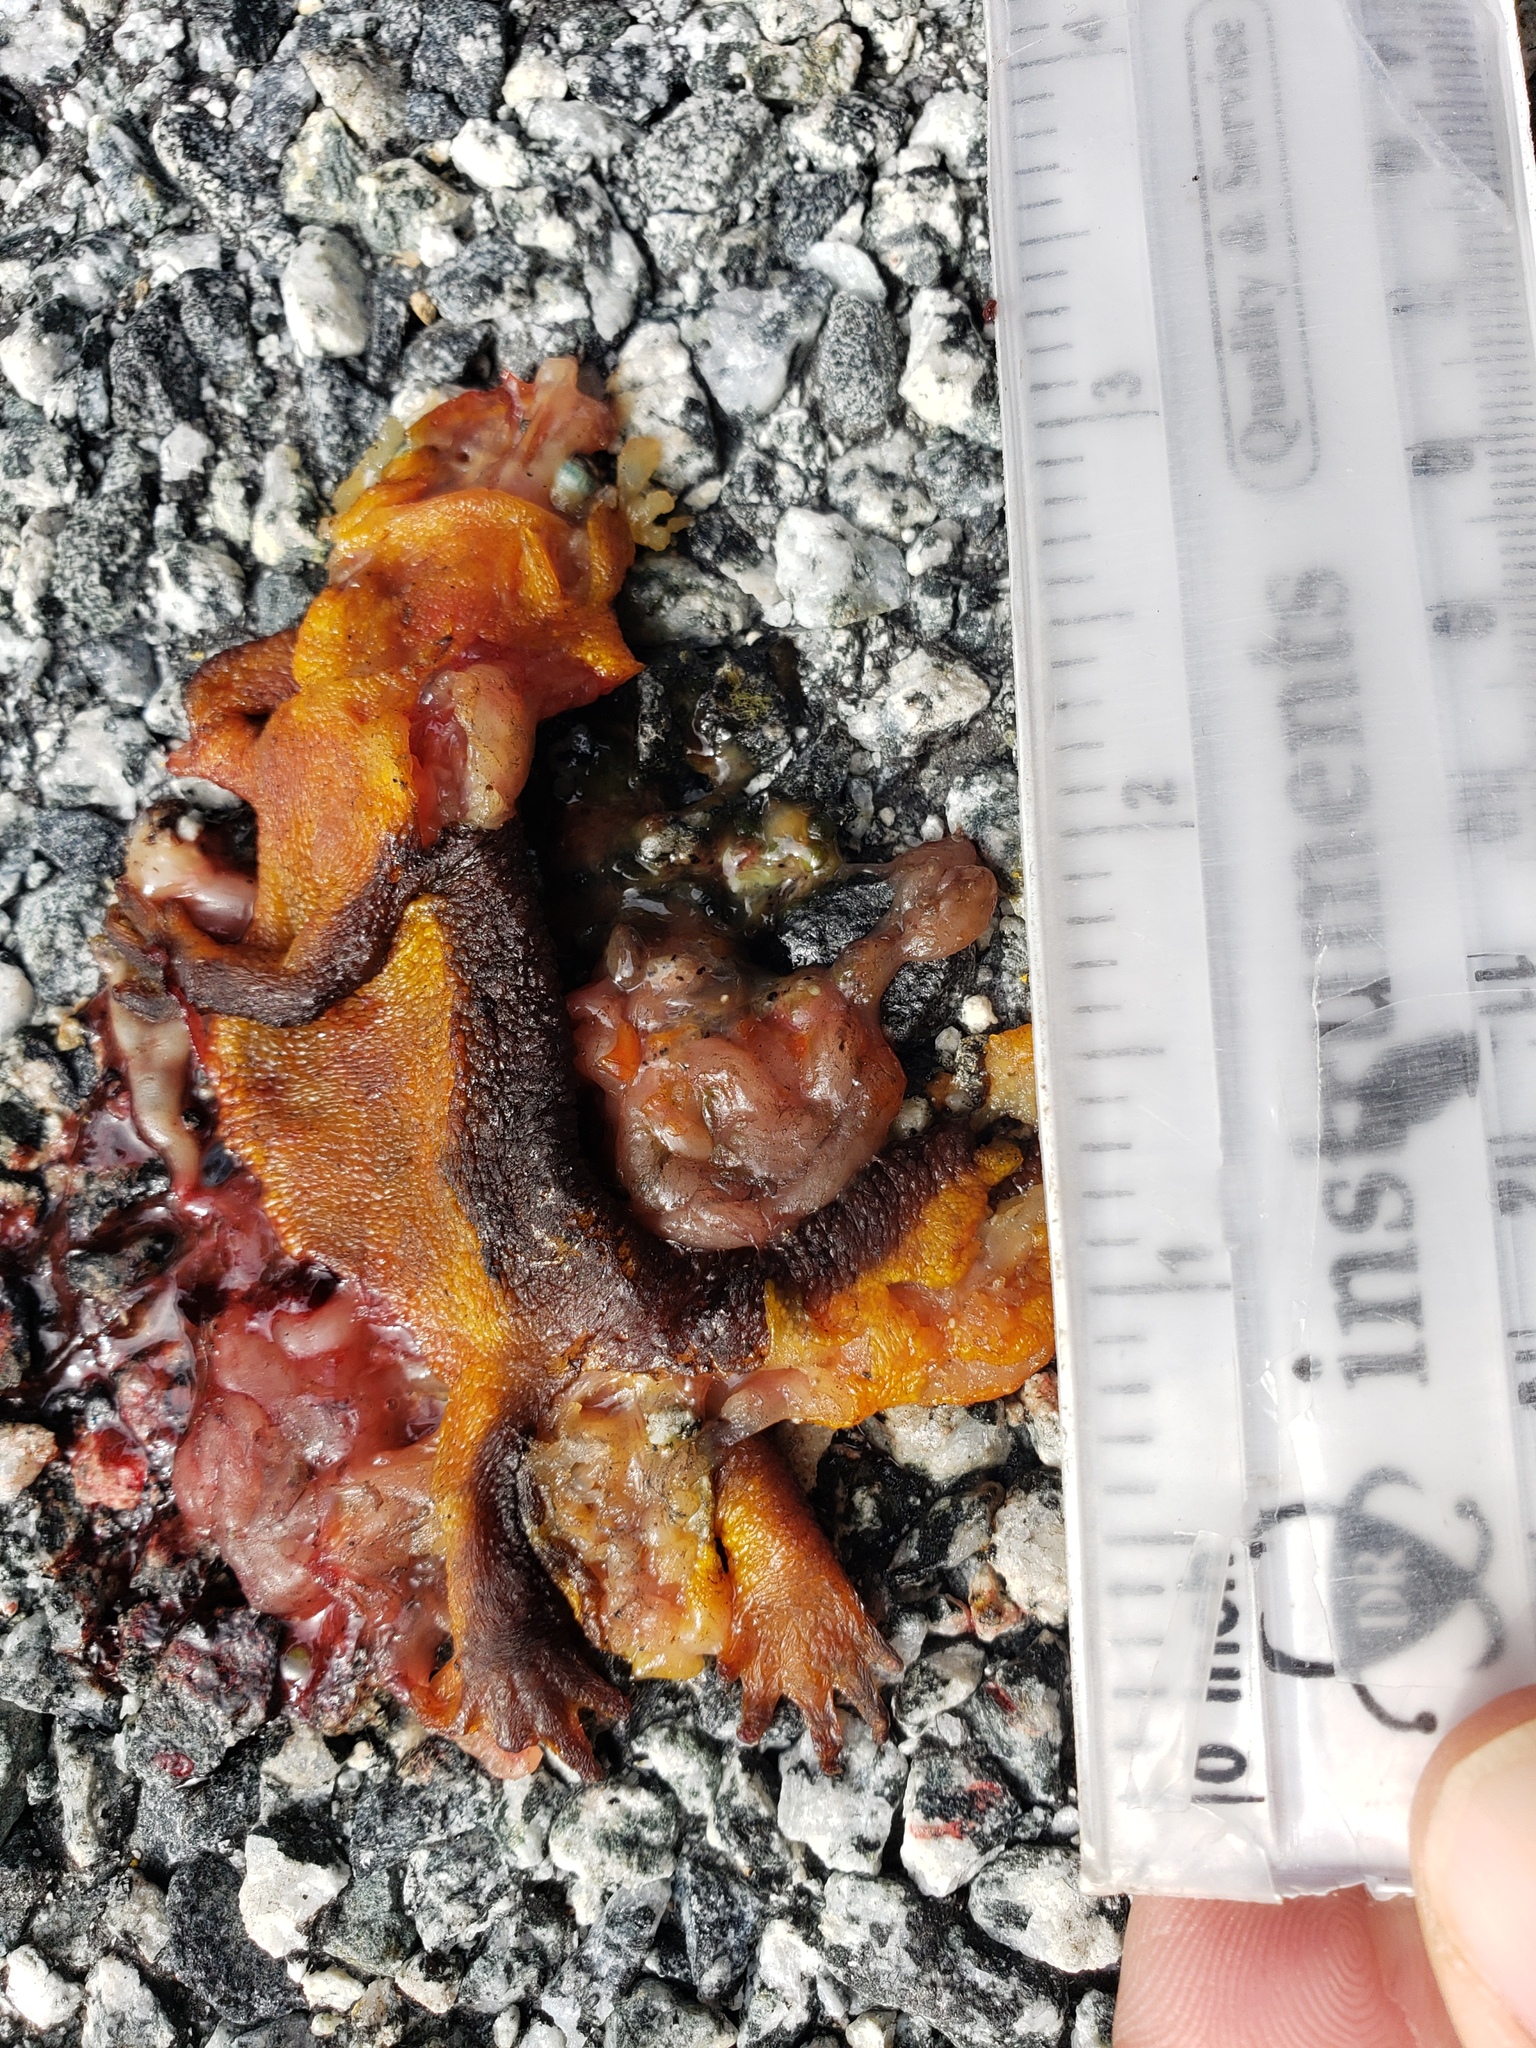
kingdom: Animalia
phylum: Chordata
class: Amphibia
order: Caudata
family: Salamandridae
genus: Taricha
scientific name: Taricha
